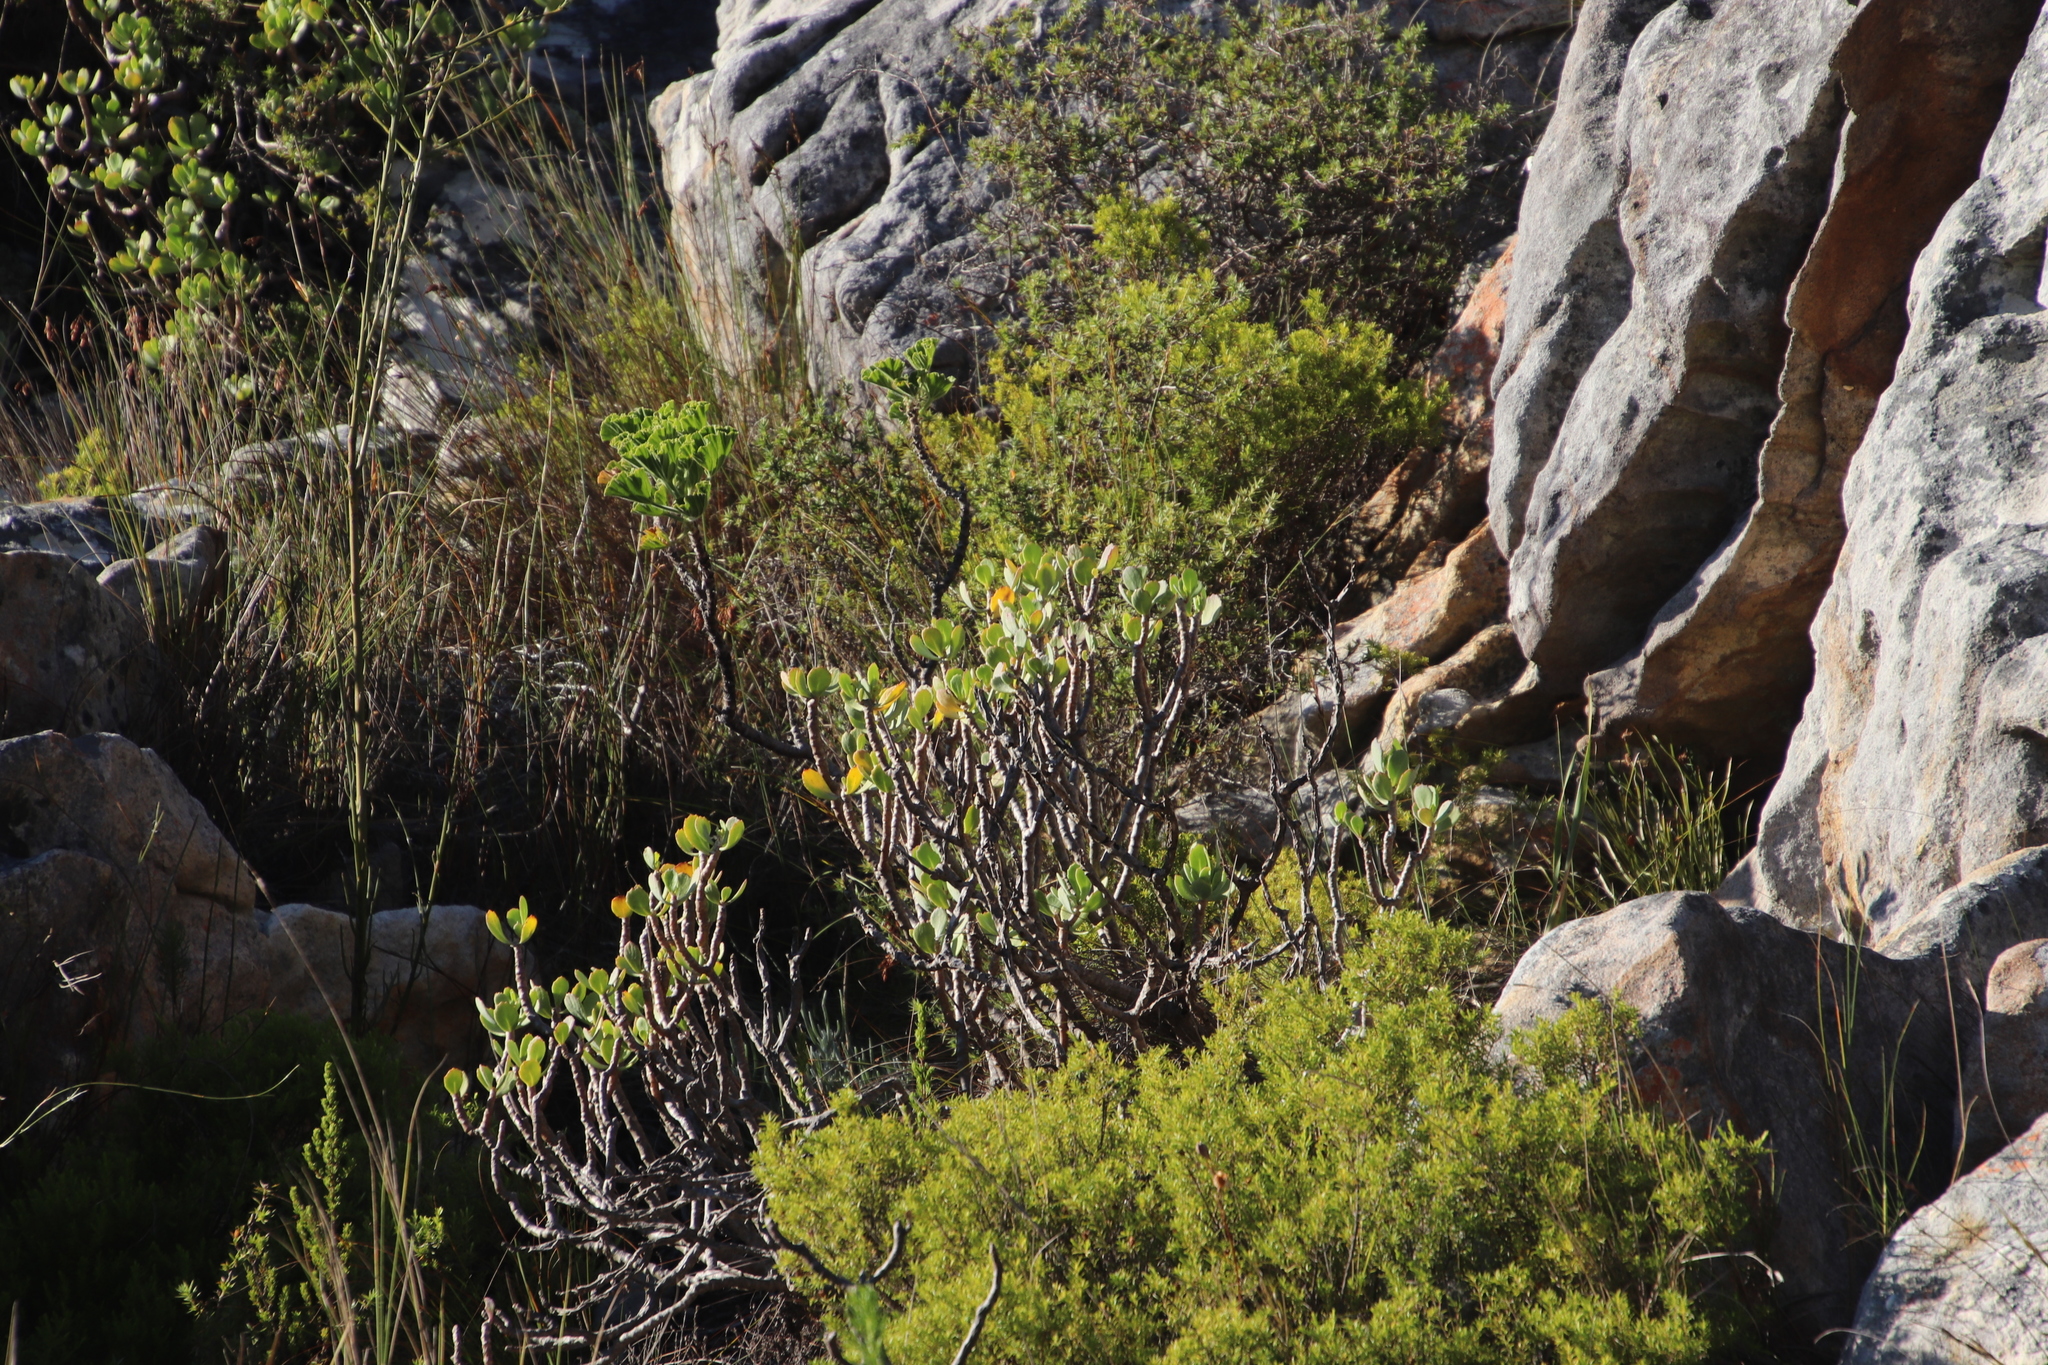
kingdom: Plantae
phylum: Tracheophyta
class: Magnoliopsida
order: Asterales
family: Asteraceae
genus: Othonna
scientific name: Othonna dentata
